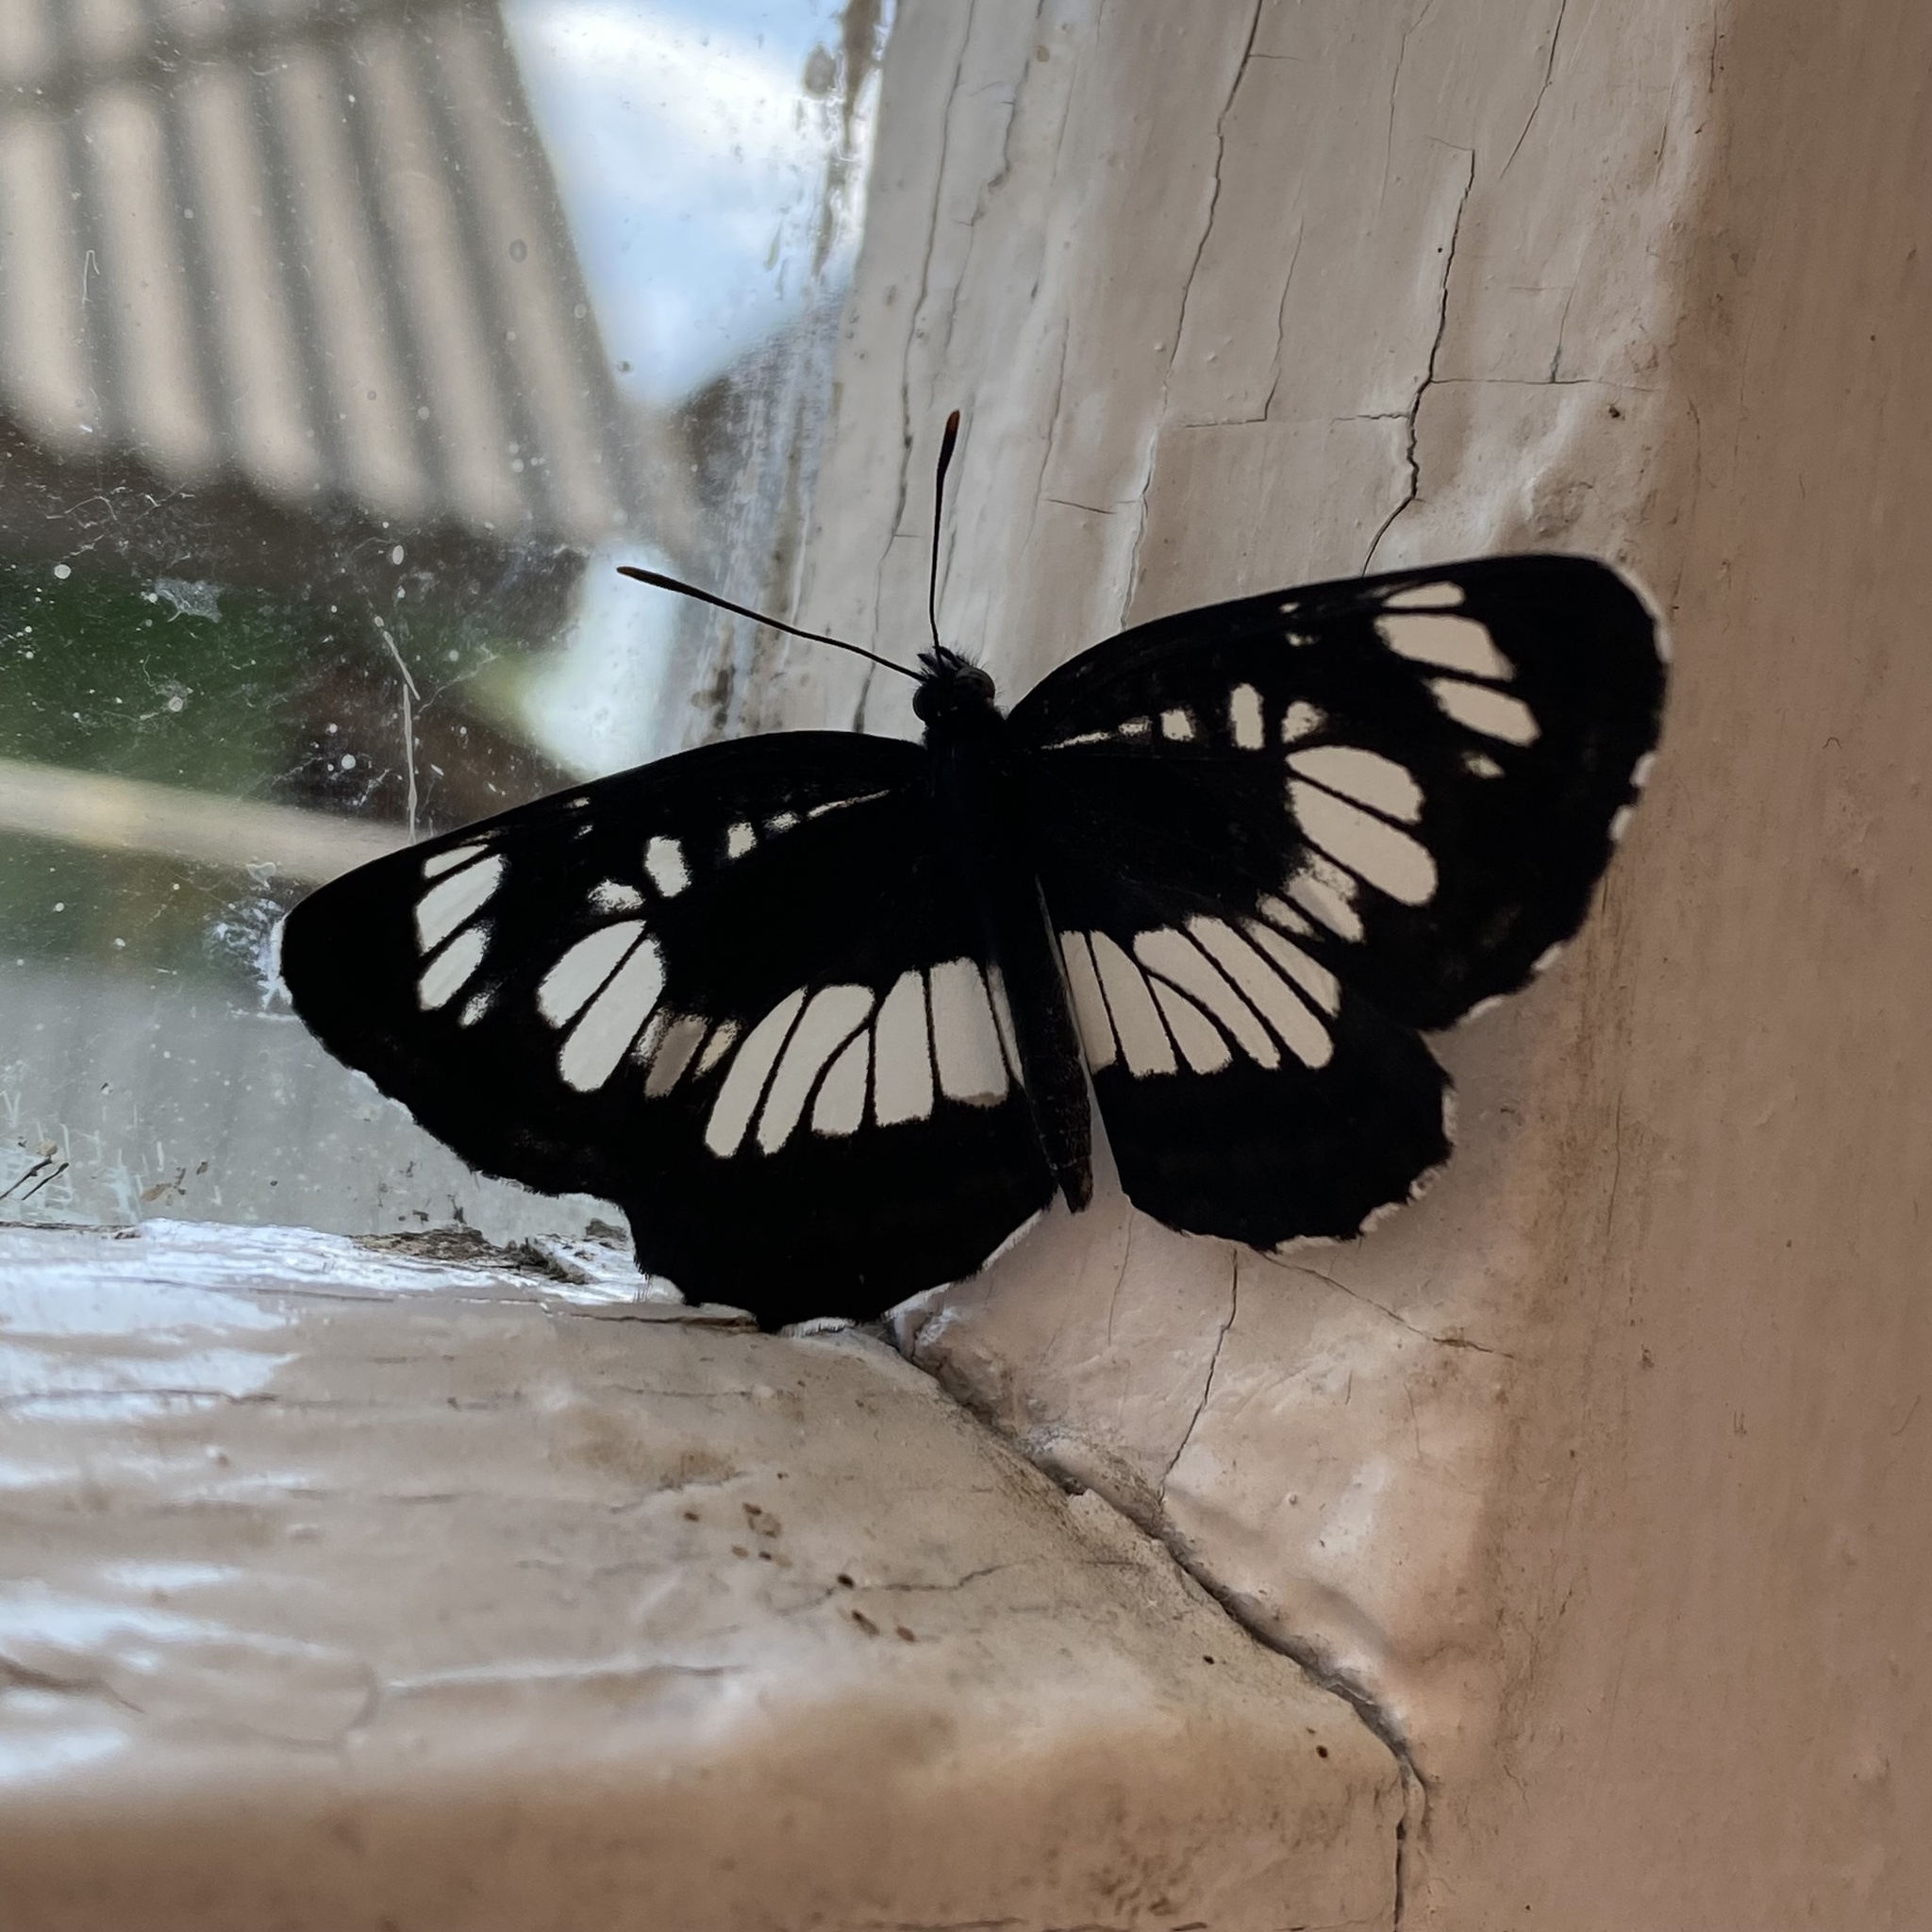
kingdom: Animalia
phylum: Arthropoda
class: Insecta
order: Lepidoptera
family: Nymphalidae
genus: Neptis
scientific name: Neptis rivularis
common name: Hungarian glider
